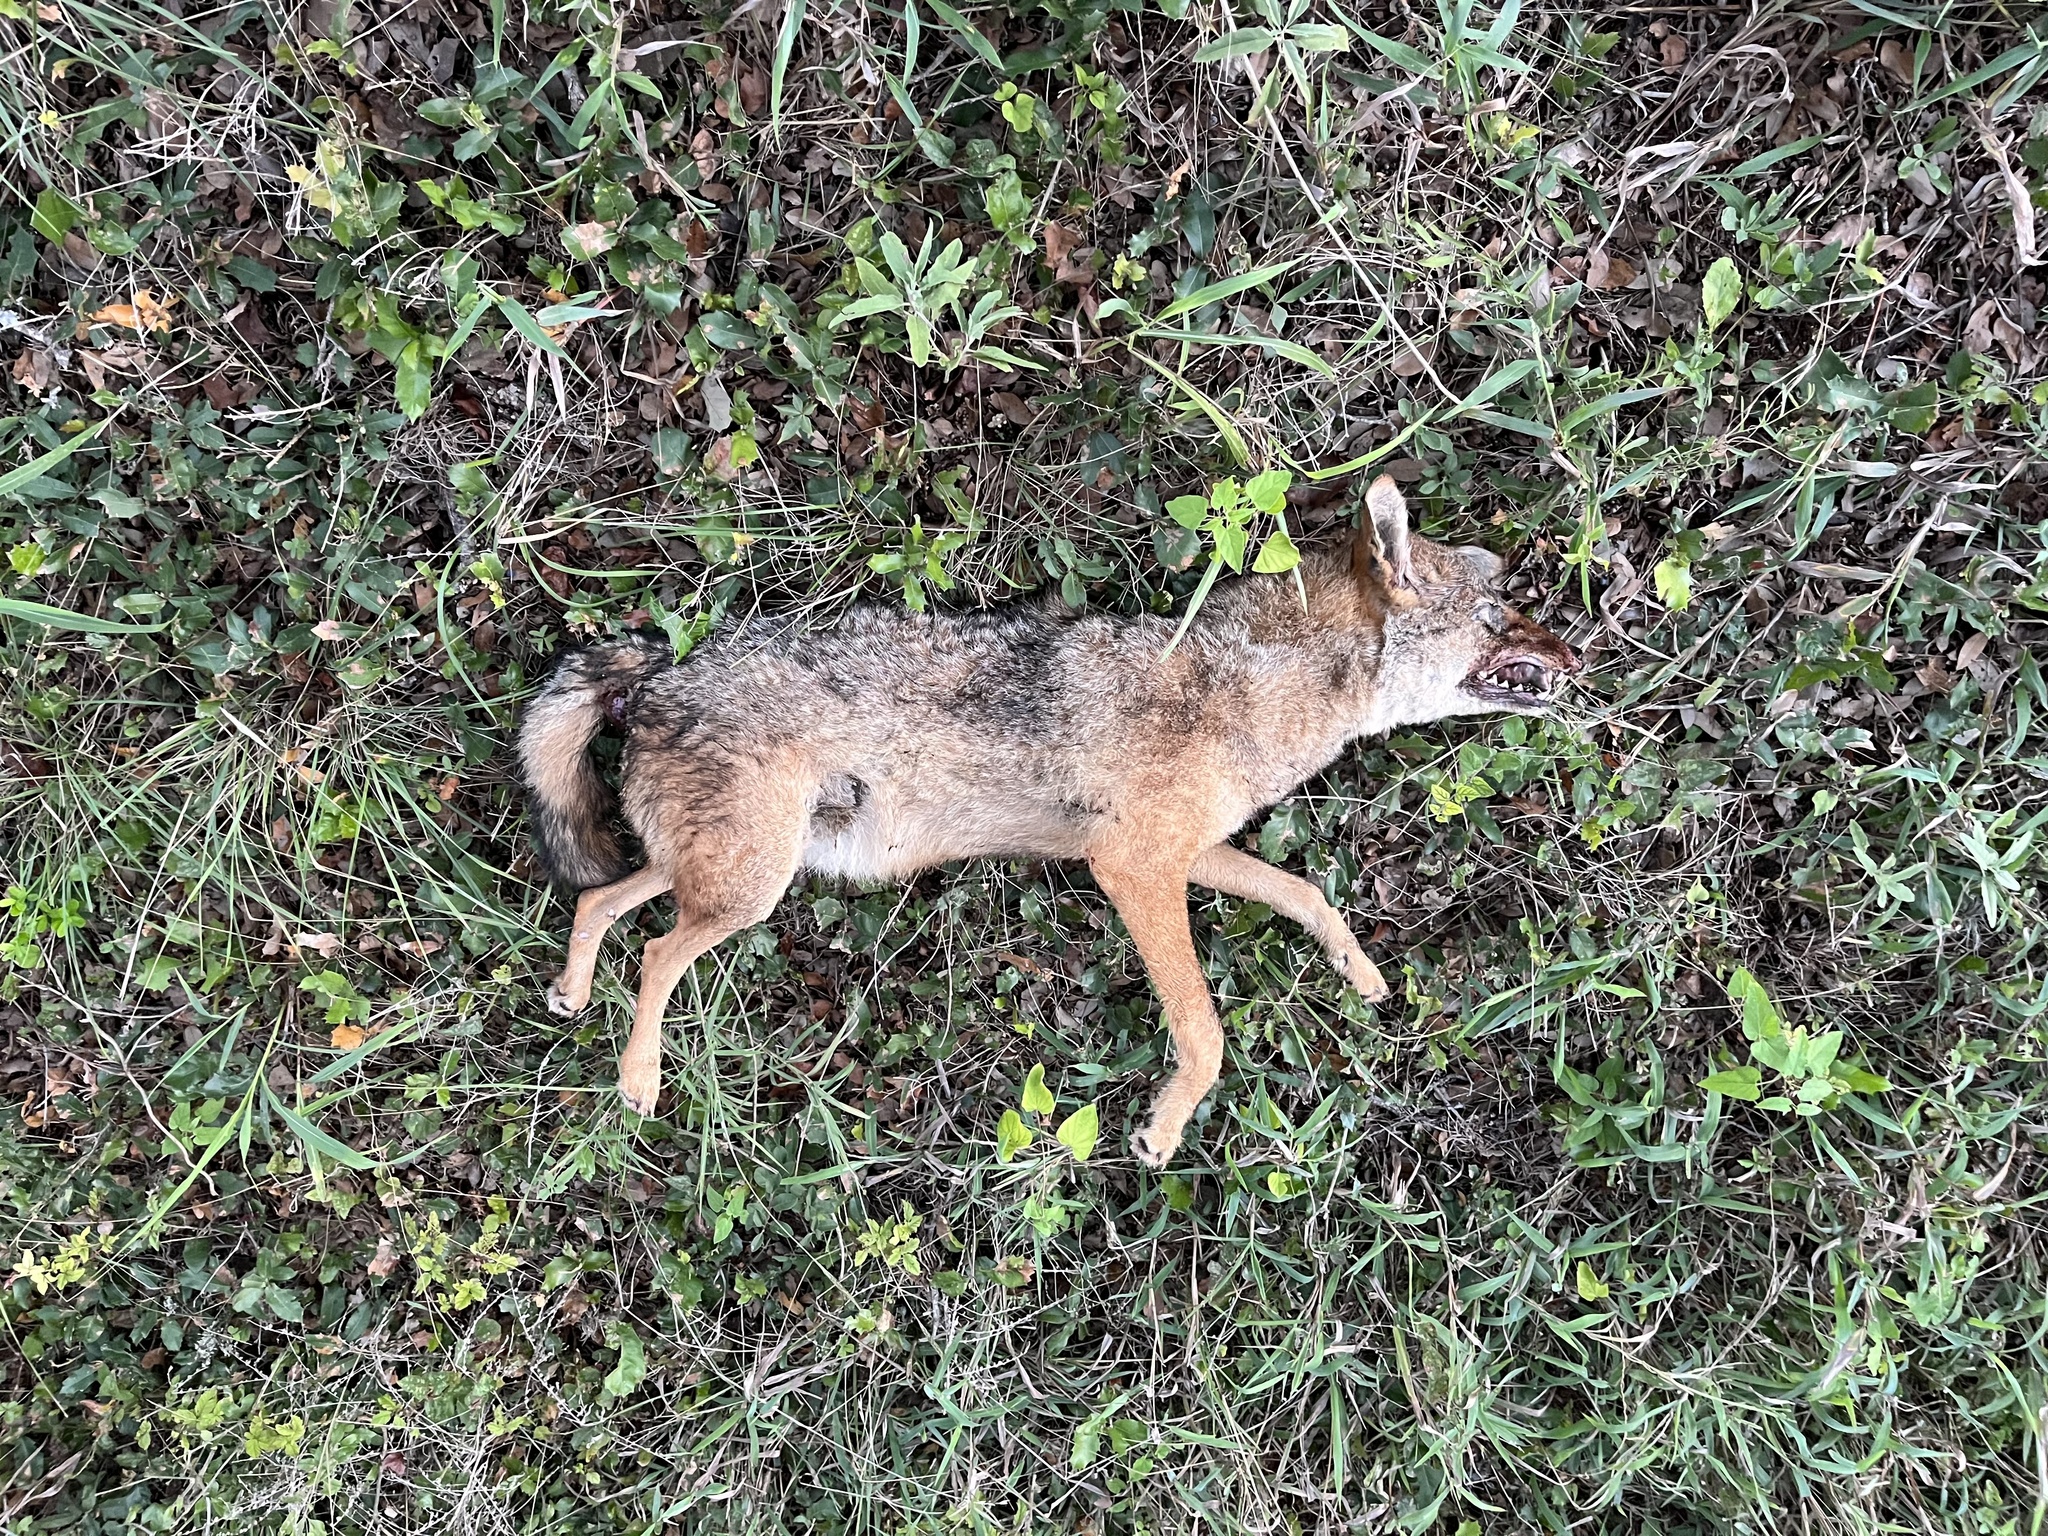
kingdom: Animalia
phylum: Chordata
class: Mammalia
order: Carnivora
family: Canidae
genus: Canis
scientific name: Canis latrans
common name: Coyote
